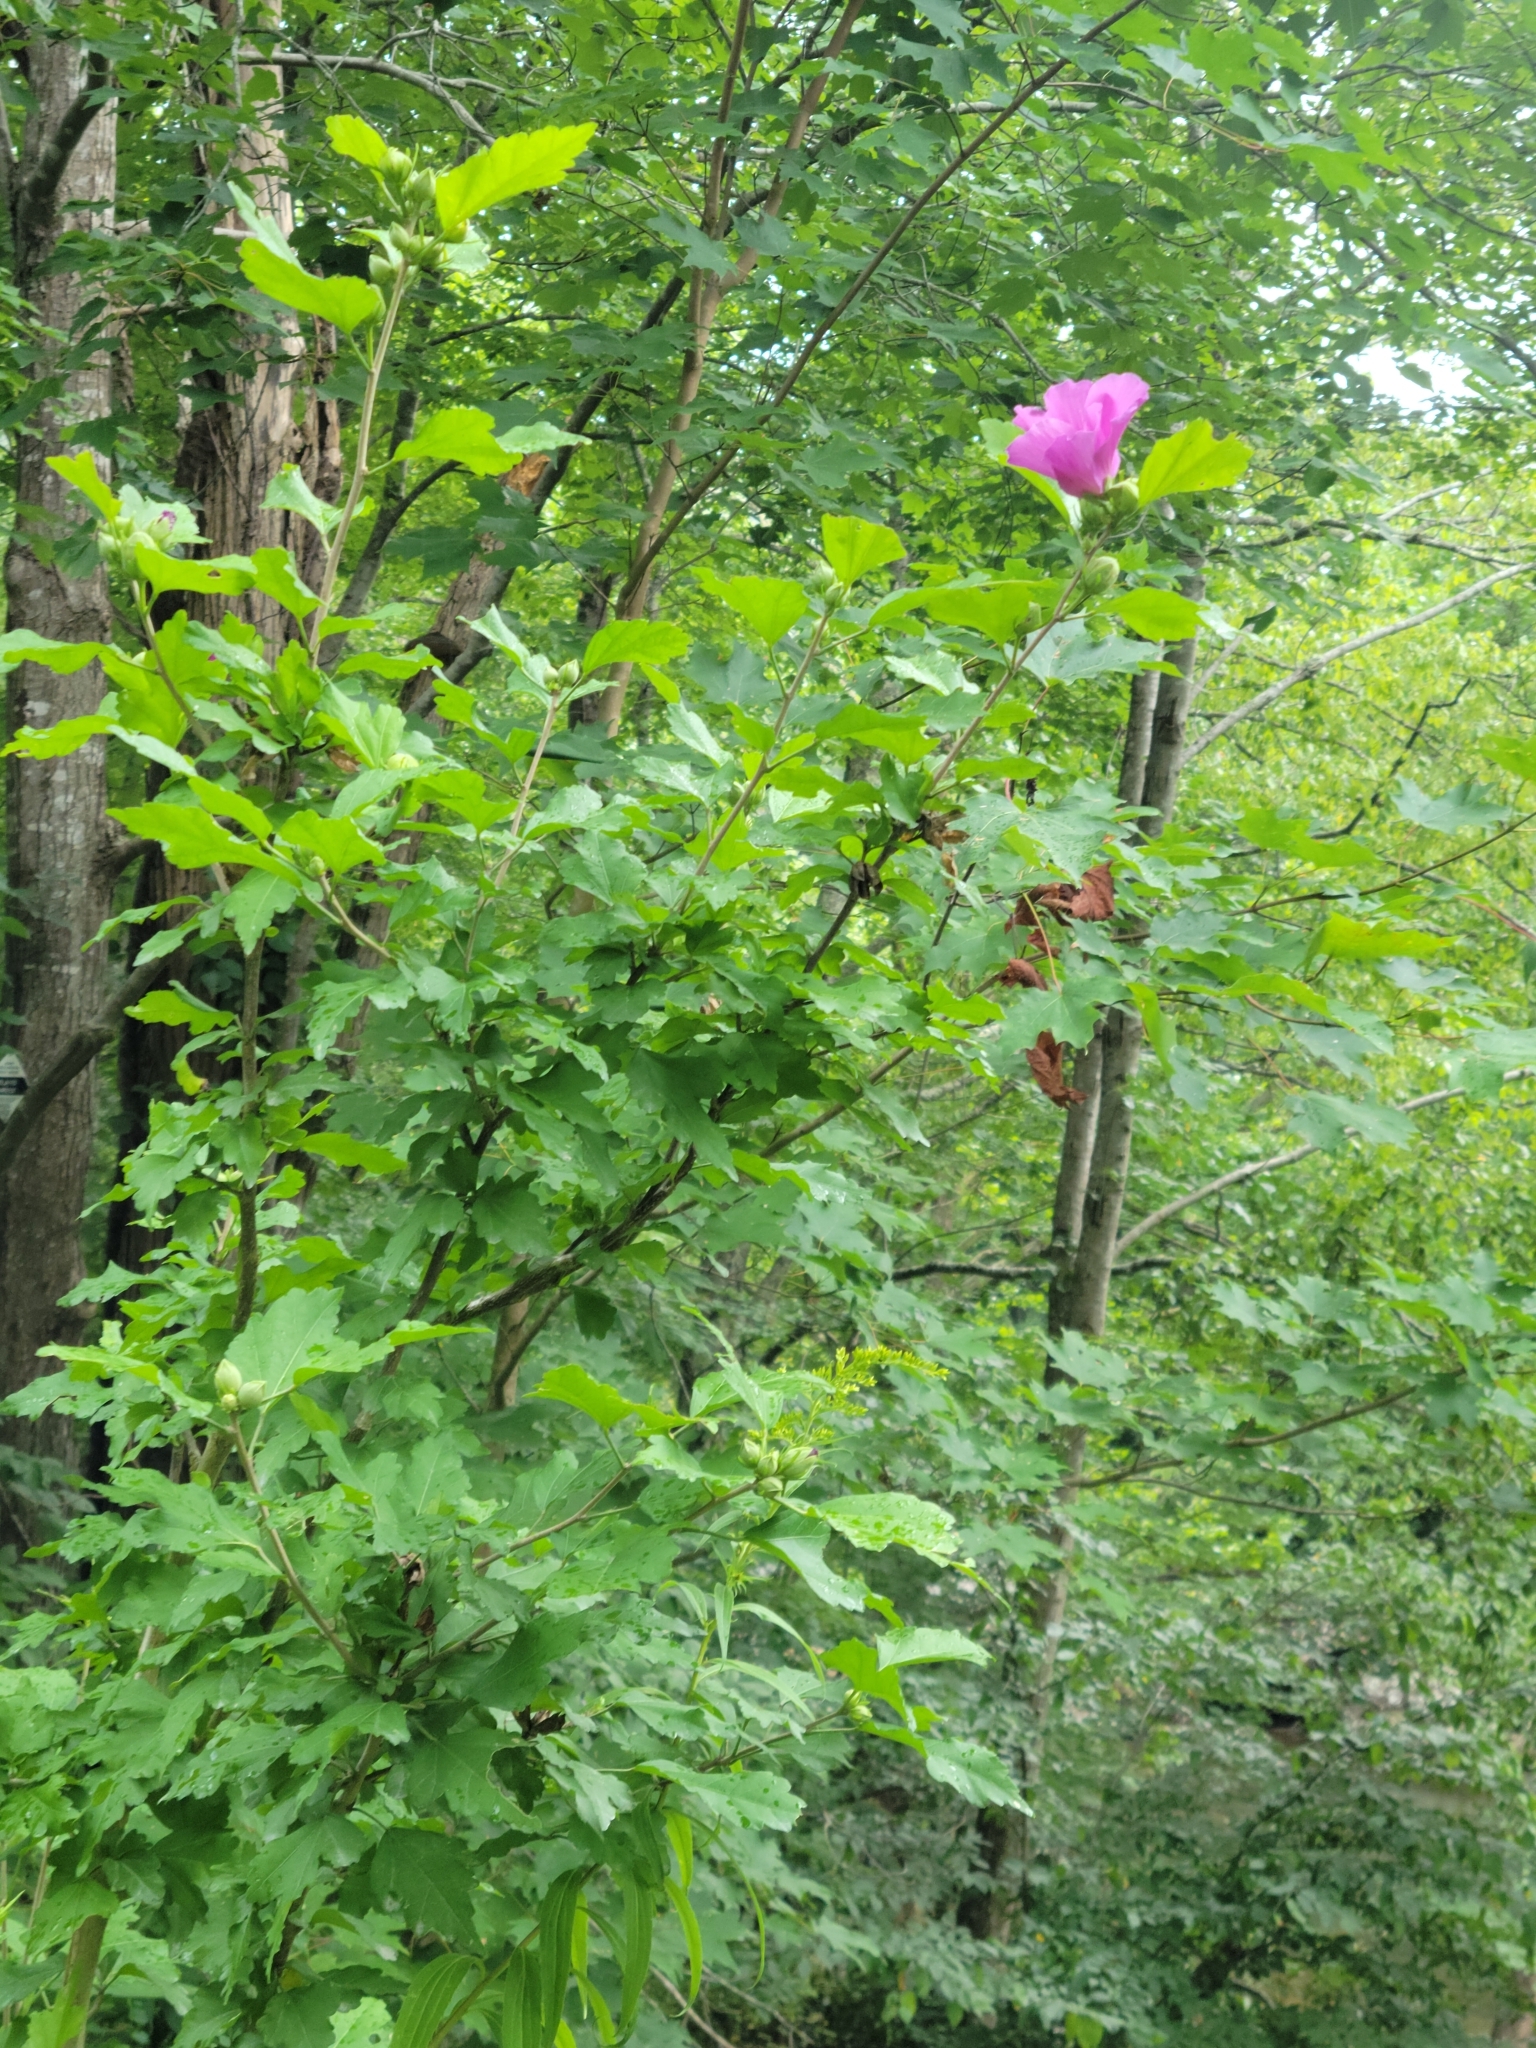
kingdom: Plantae
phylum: Tracheophyta
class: Magnoliopsida
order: Malvales
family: Malvaceae
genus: Hibiscus
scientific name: Hibiscus syriacus
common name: Syrian ketmia
